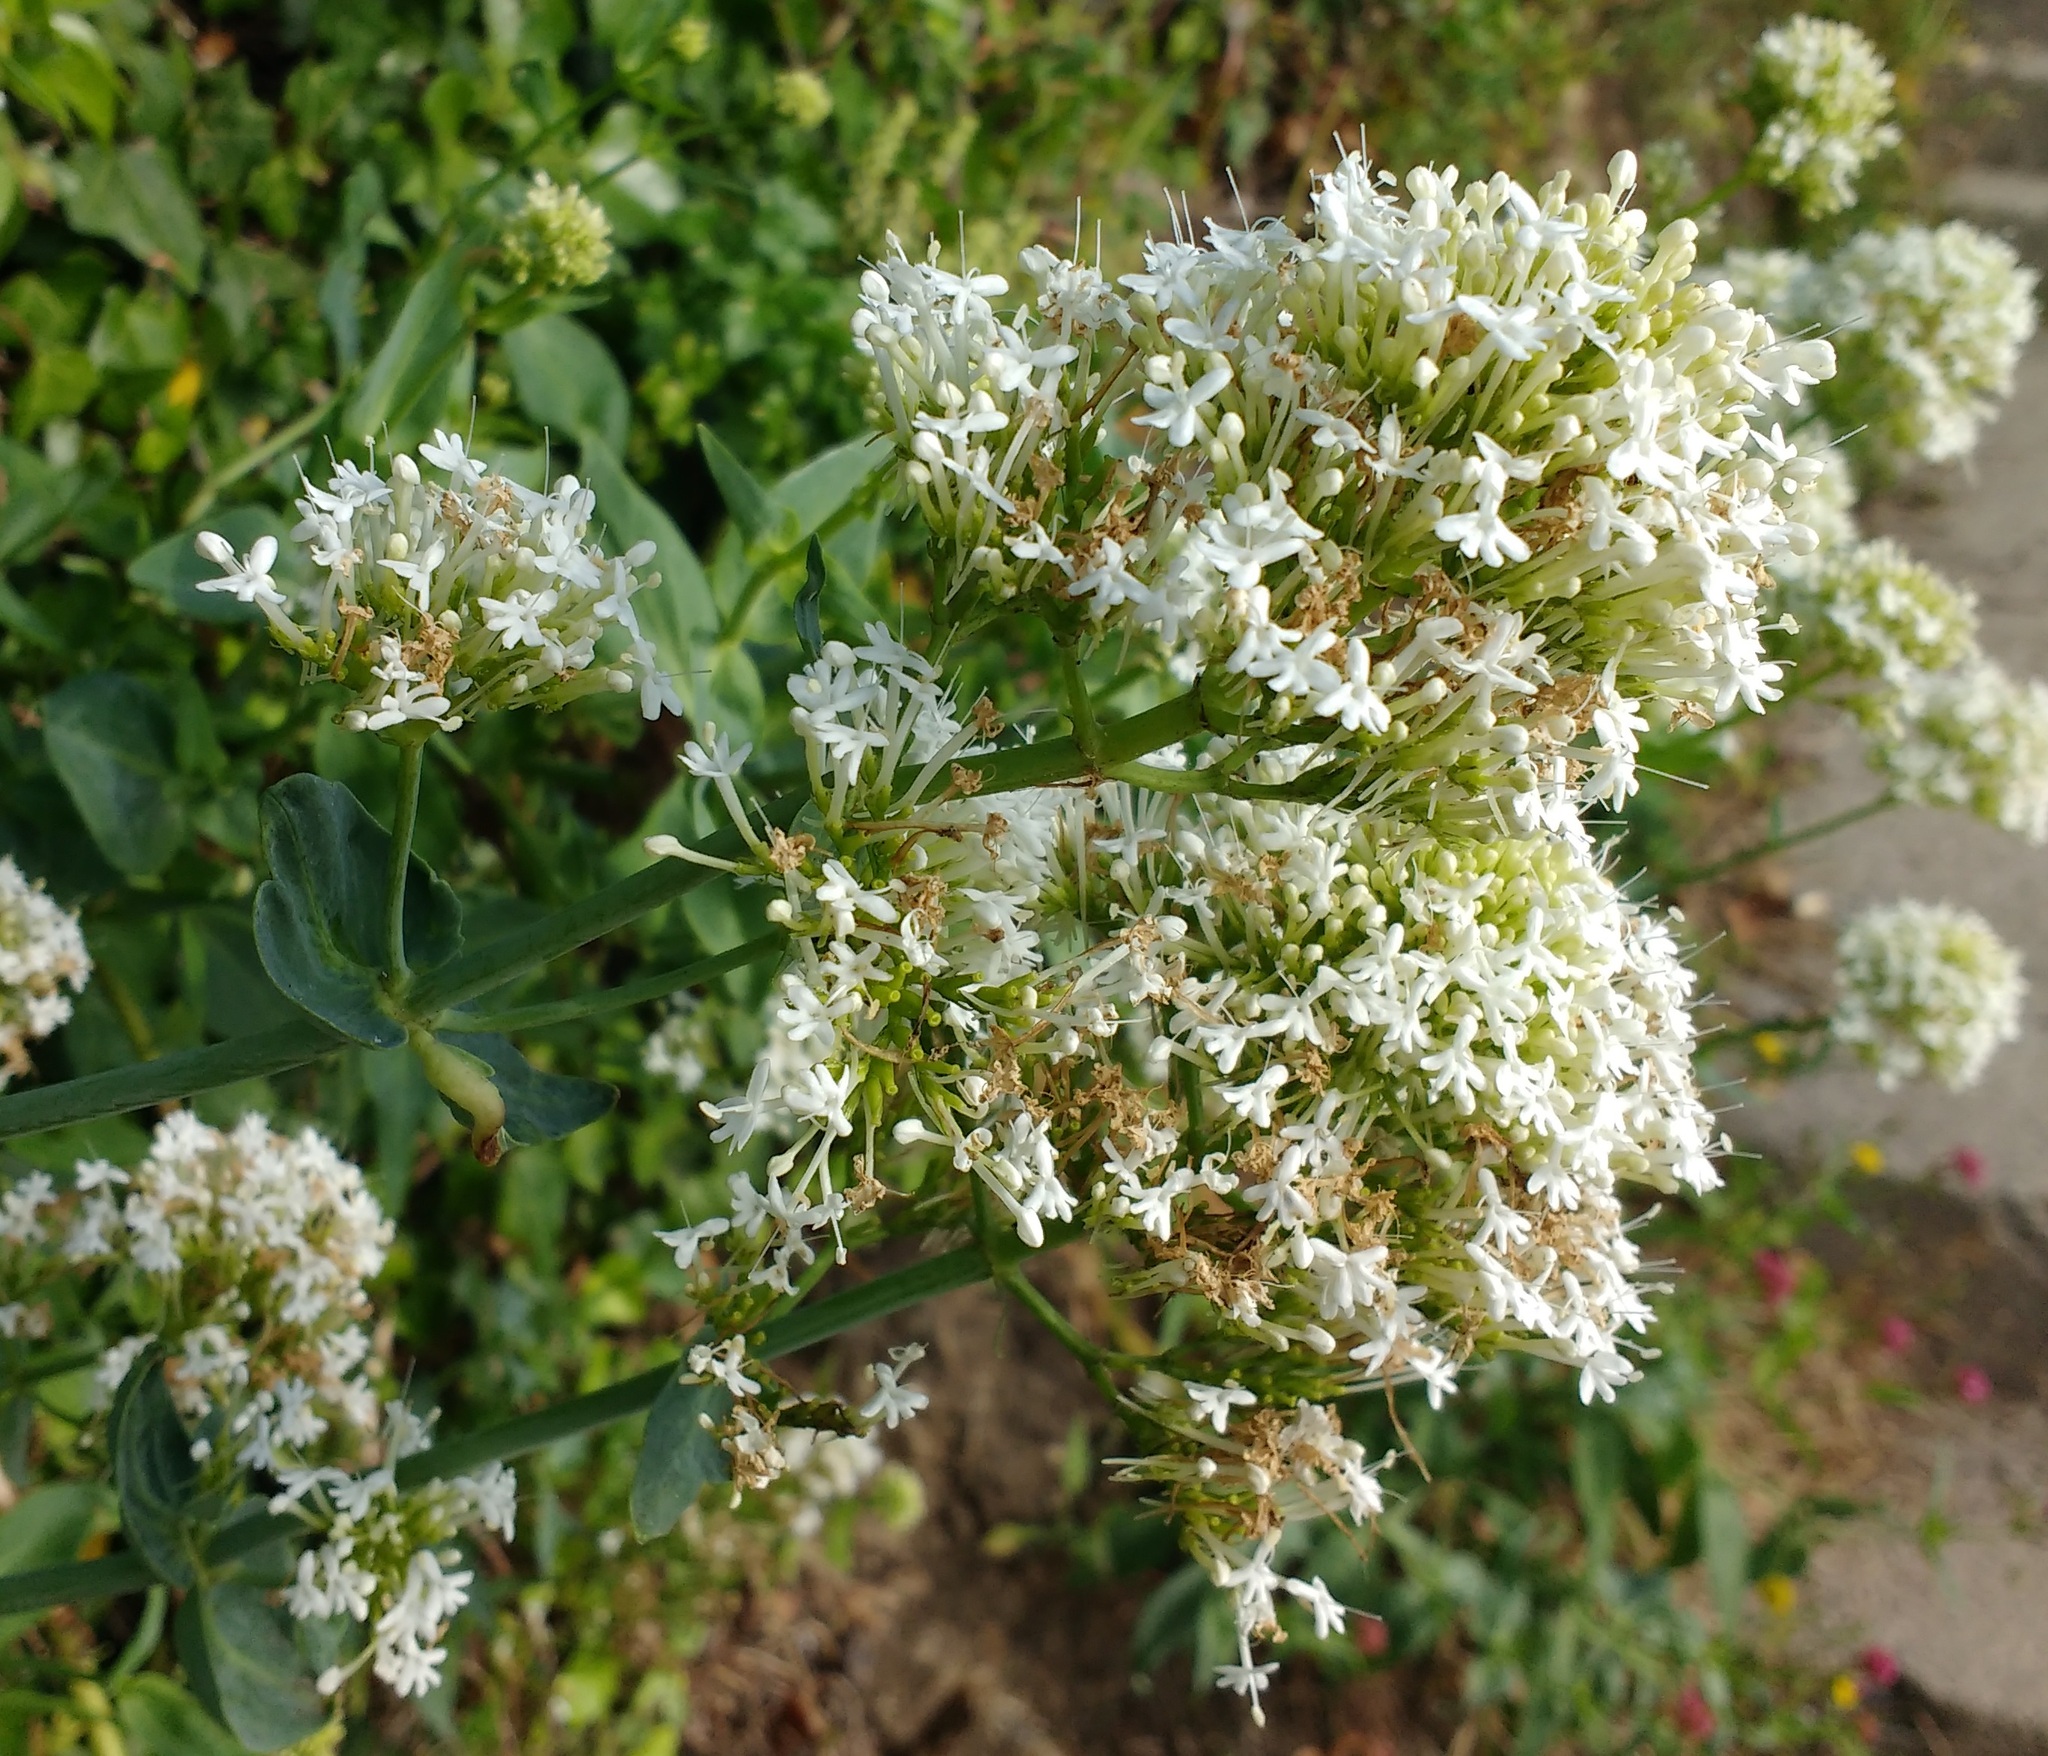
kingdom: Plantae
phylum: Tracheophyta
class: Magnoliopsida
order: Dipsacales
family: Caprifoliaceae
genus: Centranthus
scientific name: Centranthus ruber
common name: Red valerian
